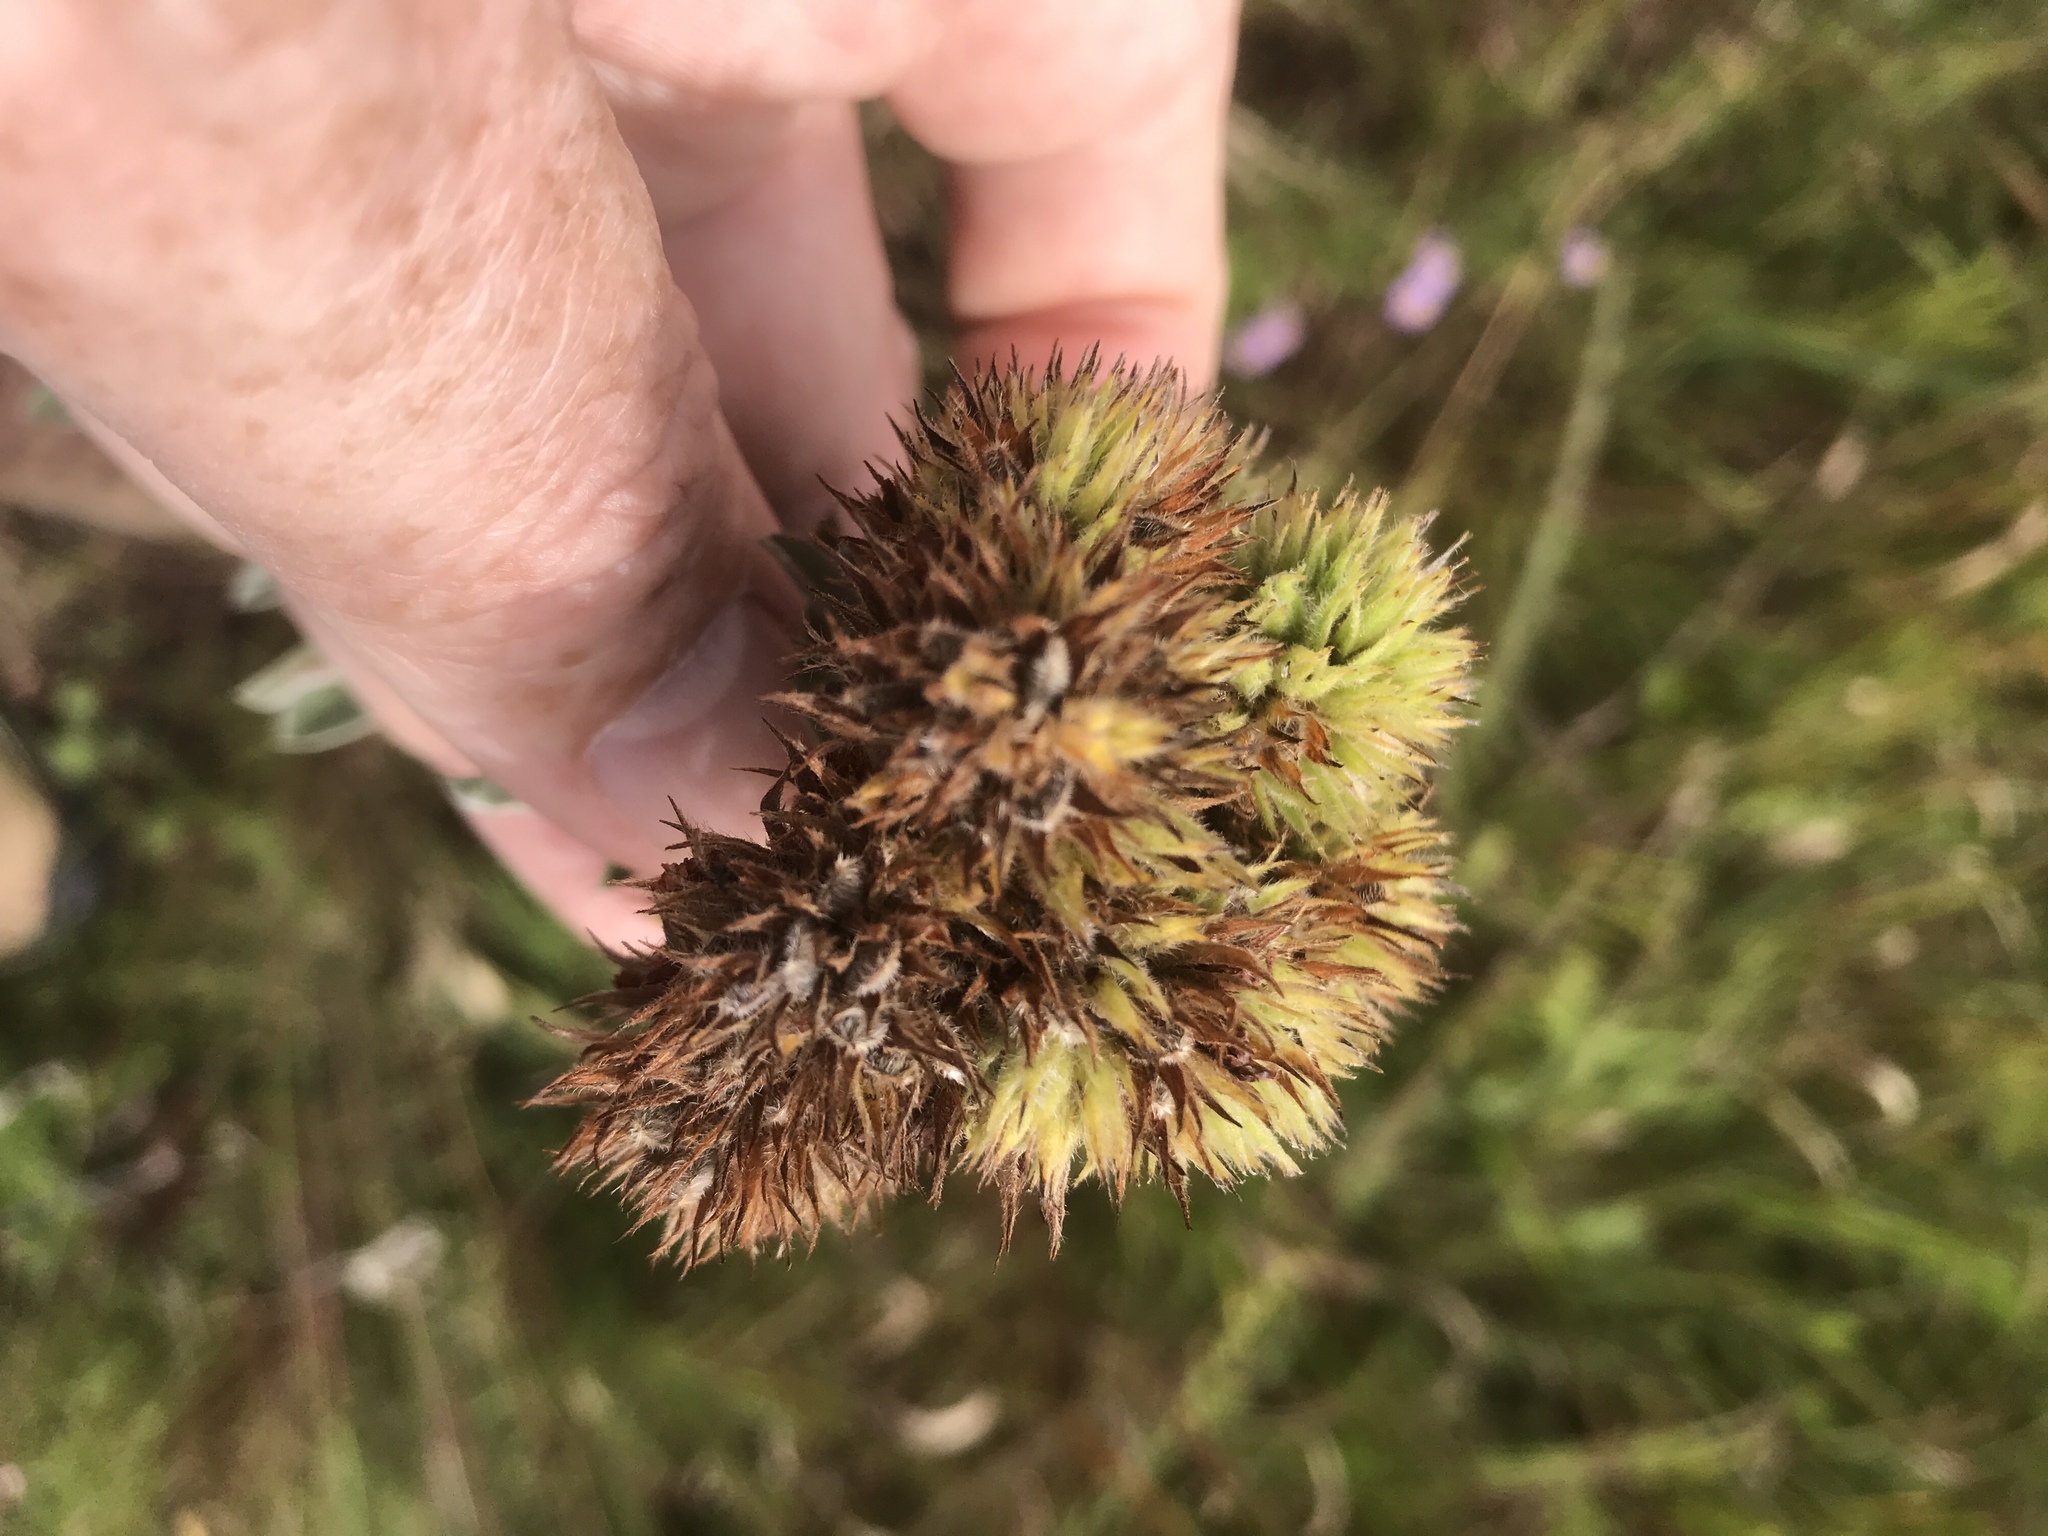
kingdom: Plantae
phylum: Tracheophyta
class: Magnoliopsida
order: Fabales
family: Fabaceae
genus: Lespedeza
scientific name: Lespedeza capitata
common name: Dusty clover
